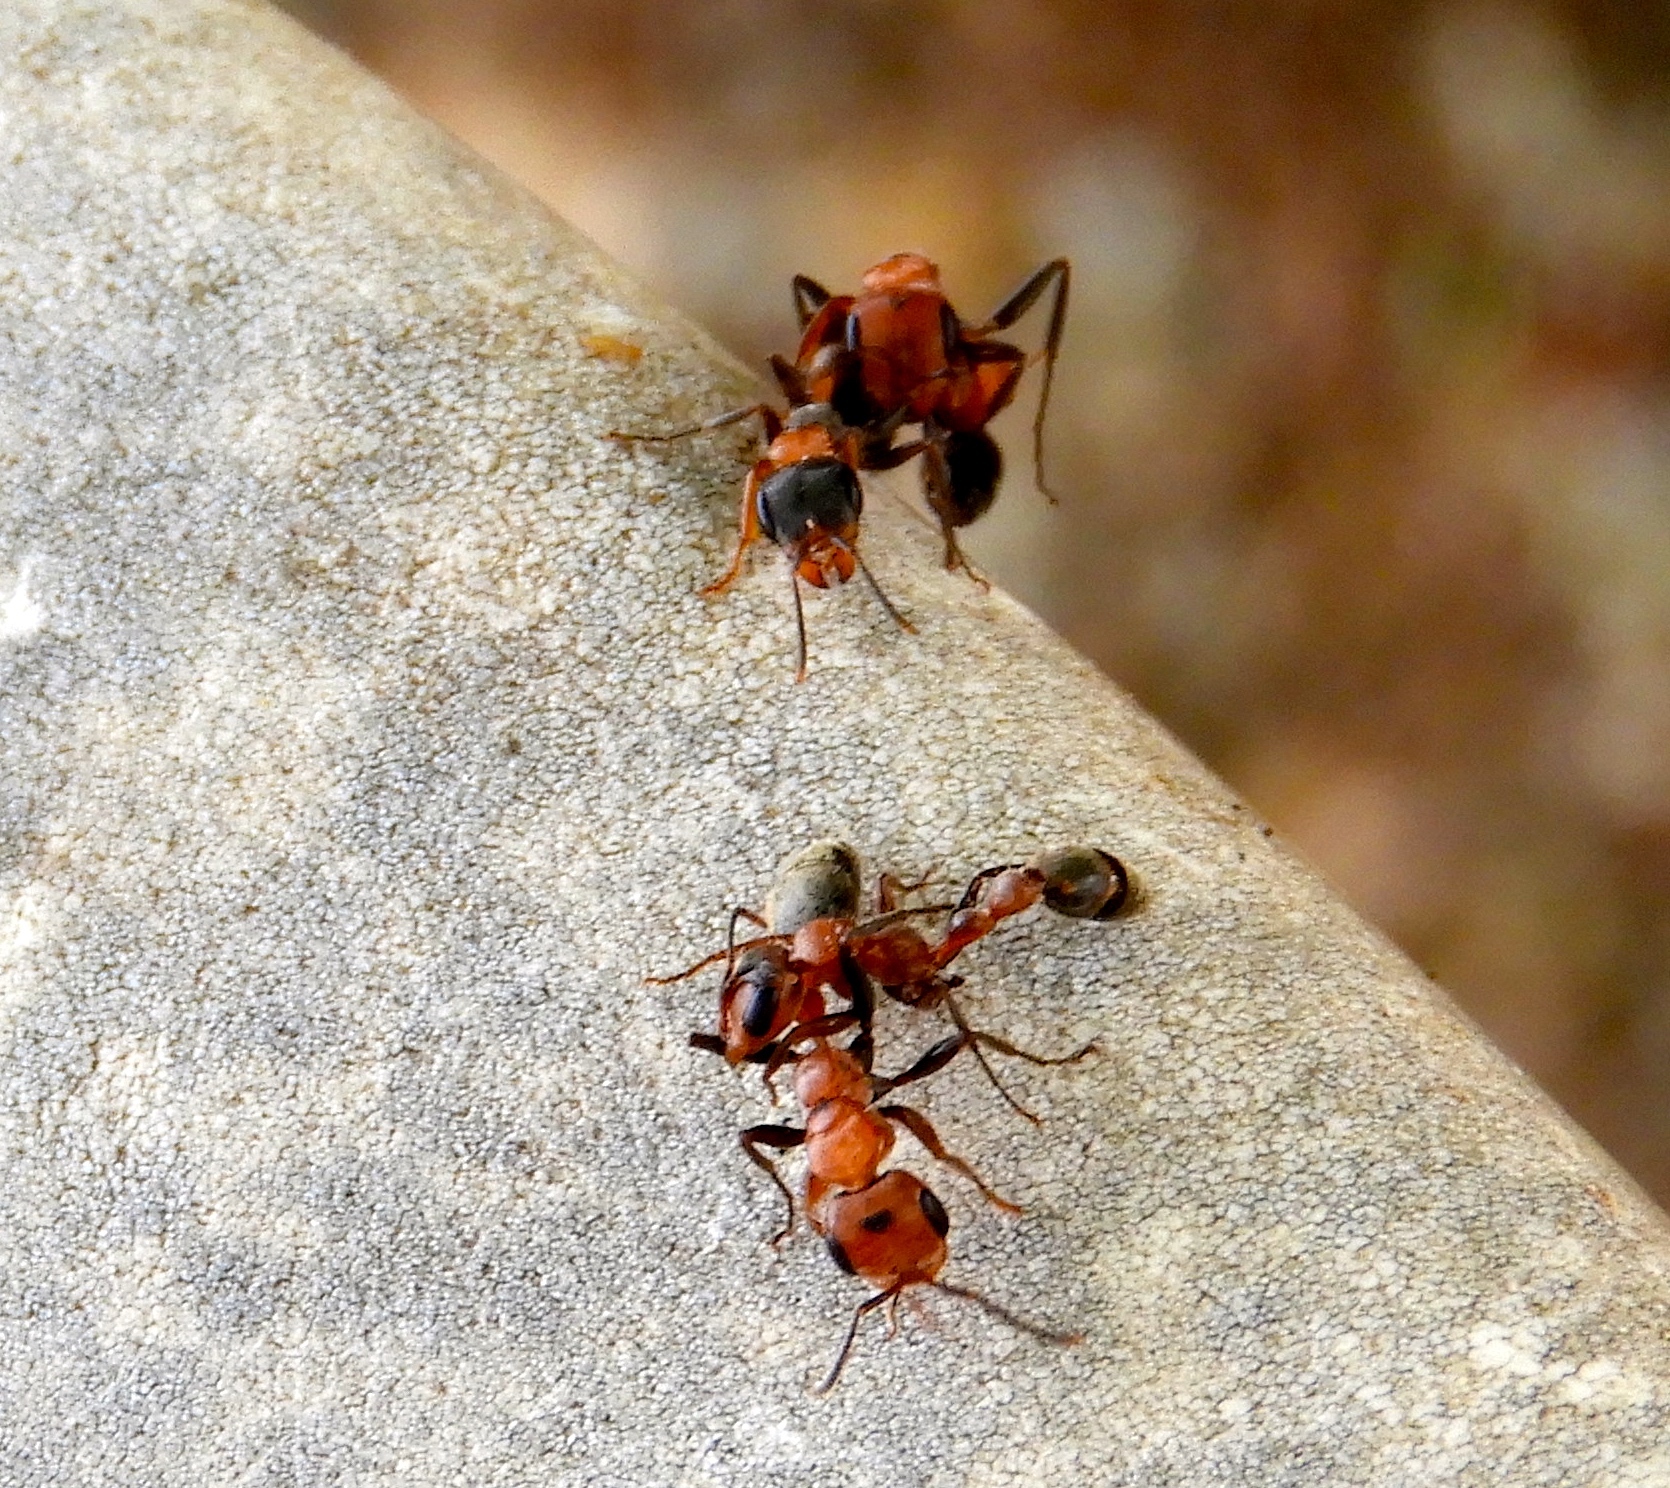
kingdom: Animalia
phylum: Arthropoda
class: Insecta
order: Hymenoptera
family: Formicidae
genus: Pseudomyrmex
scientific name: Pseudomyrmex
